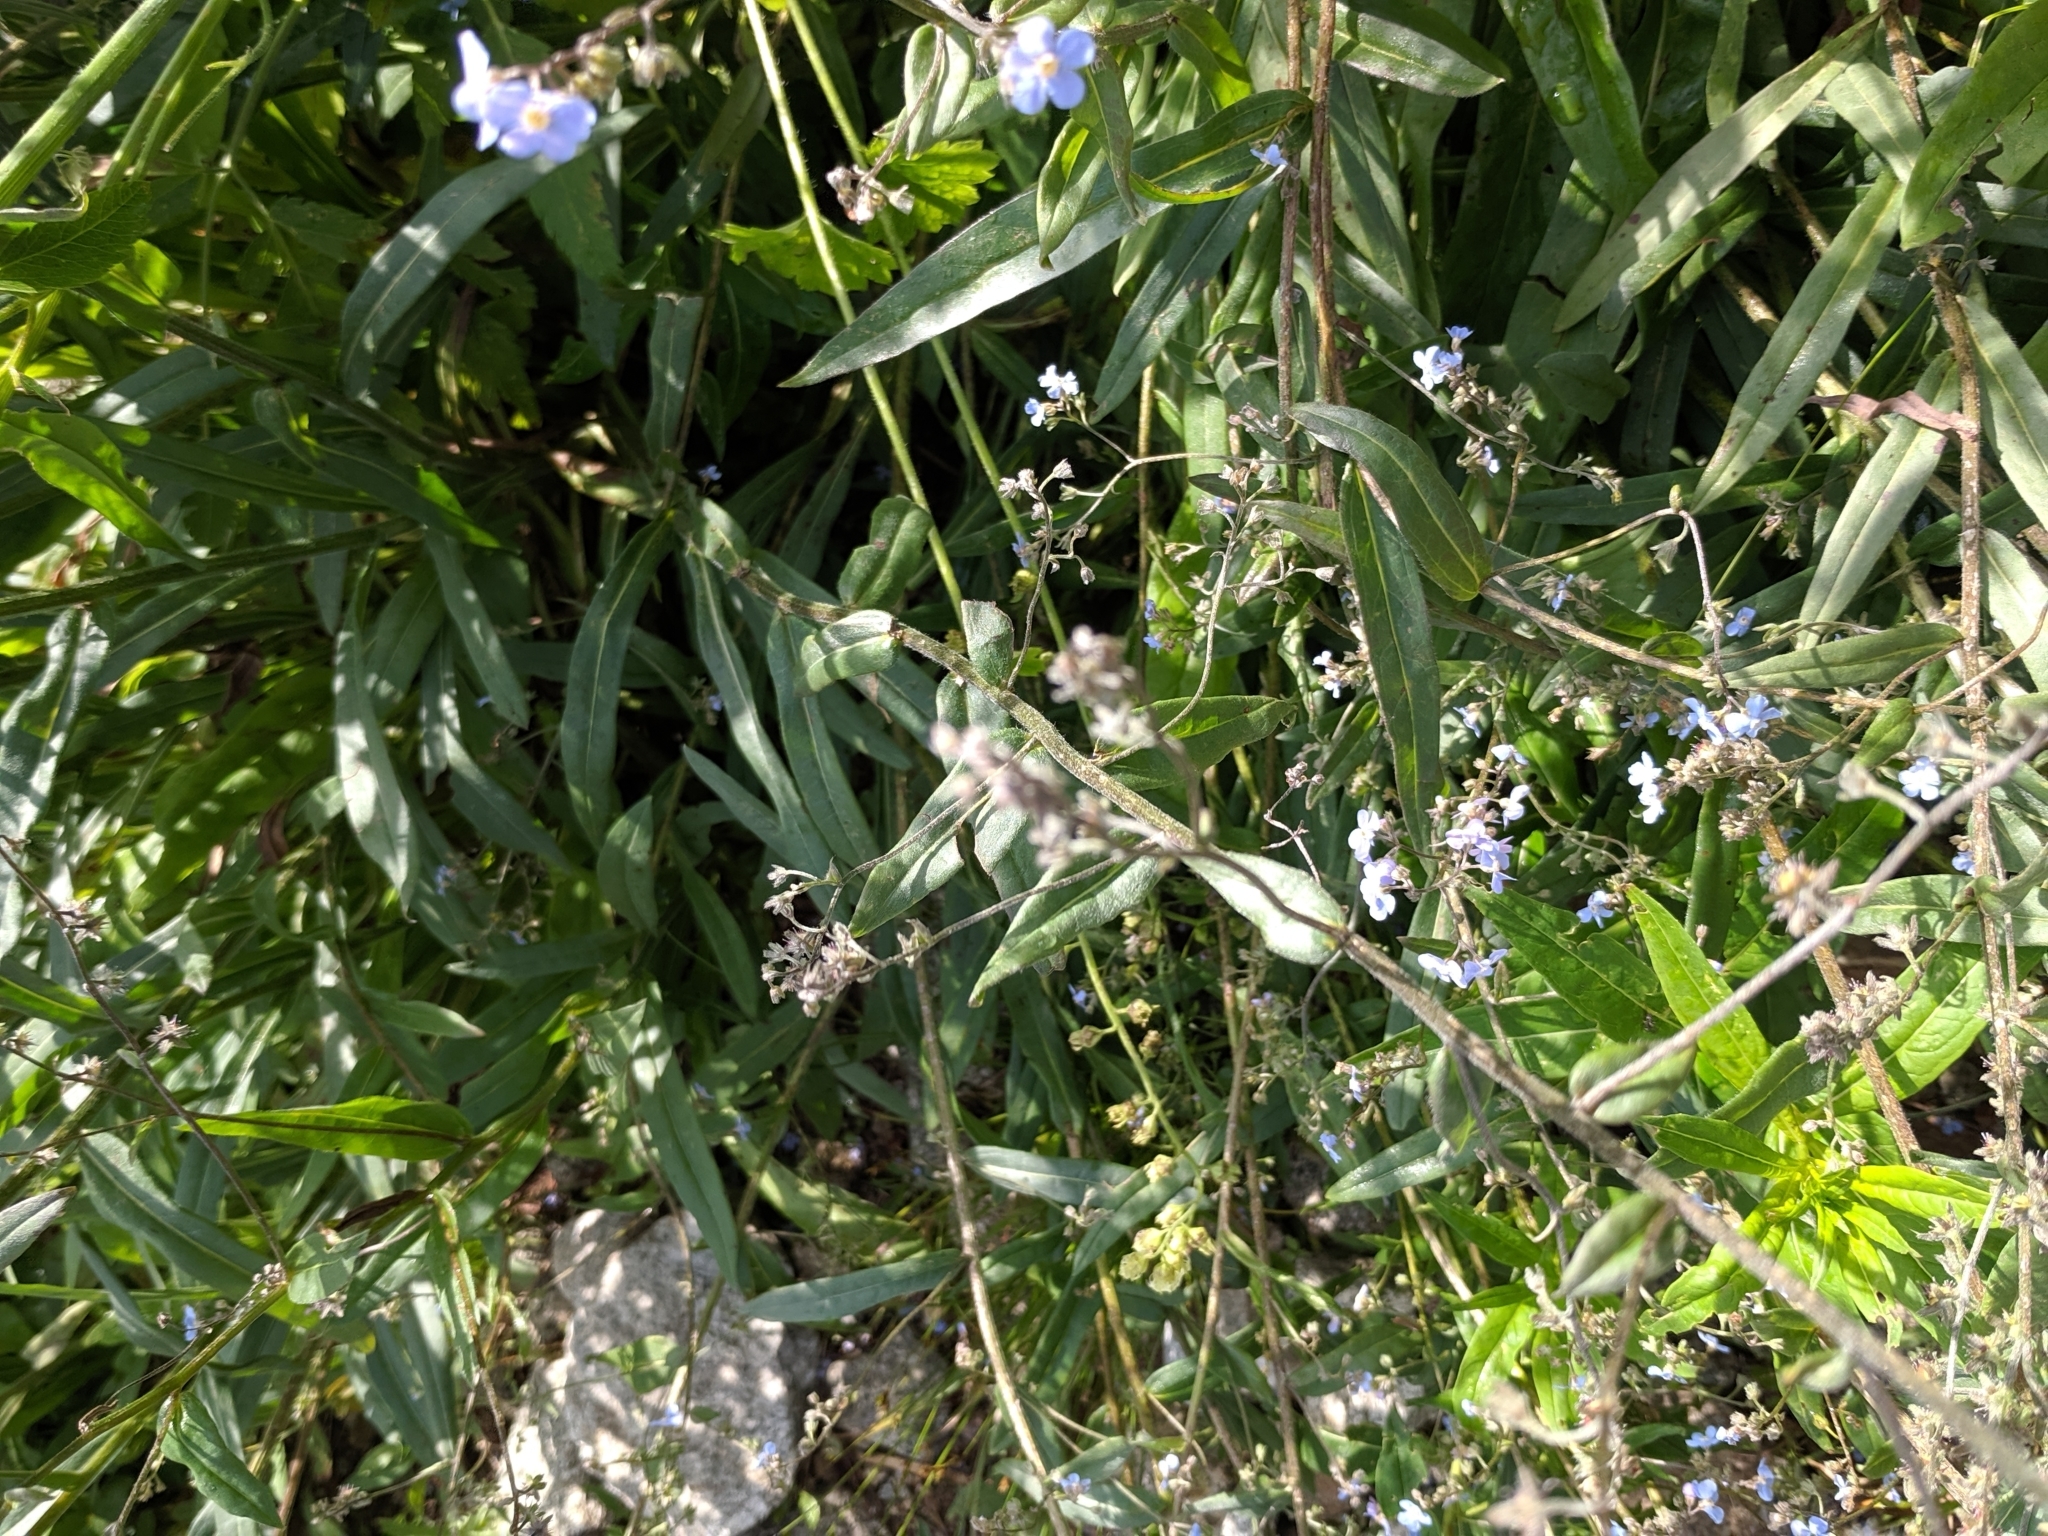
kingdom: Plantae
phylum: Tracheophyta
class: Magnoliopsida
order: Boraginales
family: Boraginaceae
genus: Hackelia
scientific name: Hackelia micrantha
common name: Meadow stickseed
